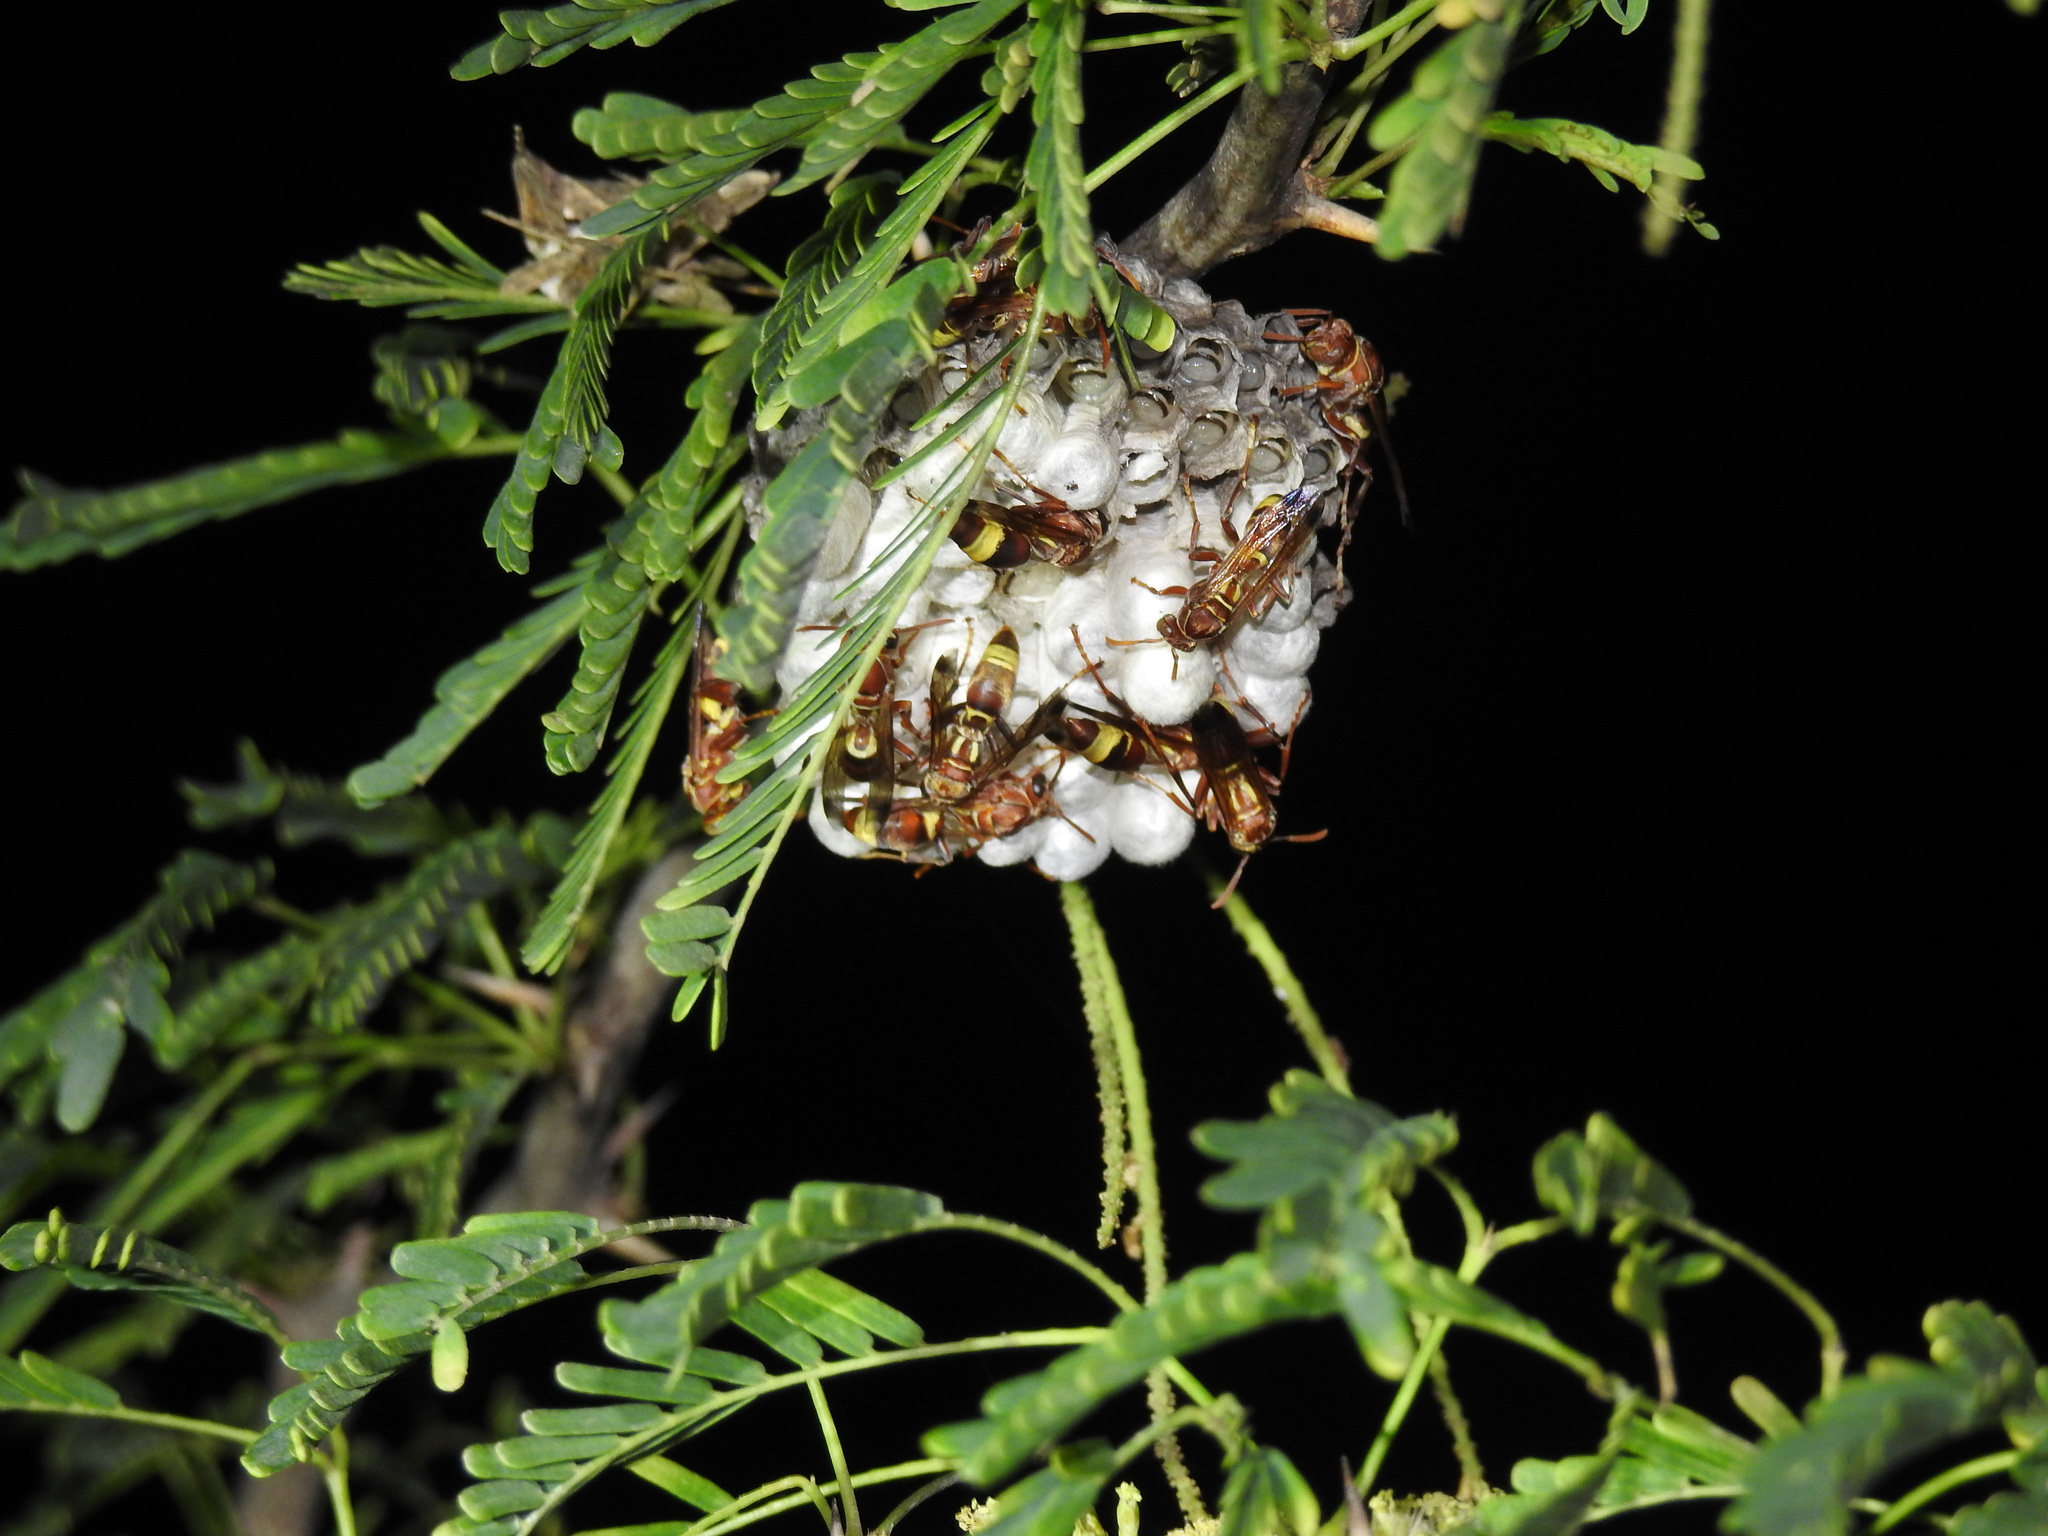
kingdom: Animalia
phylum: Arthropoda
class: Insecta
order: Hymenoptera
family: Eumenidae
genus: Polistes
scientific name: Polistes stigma
